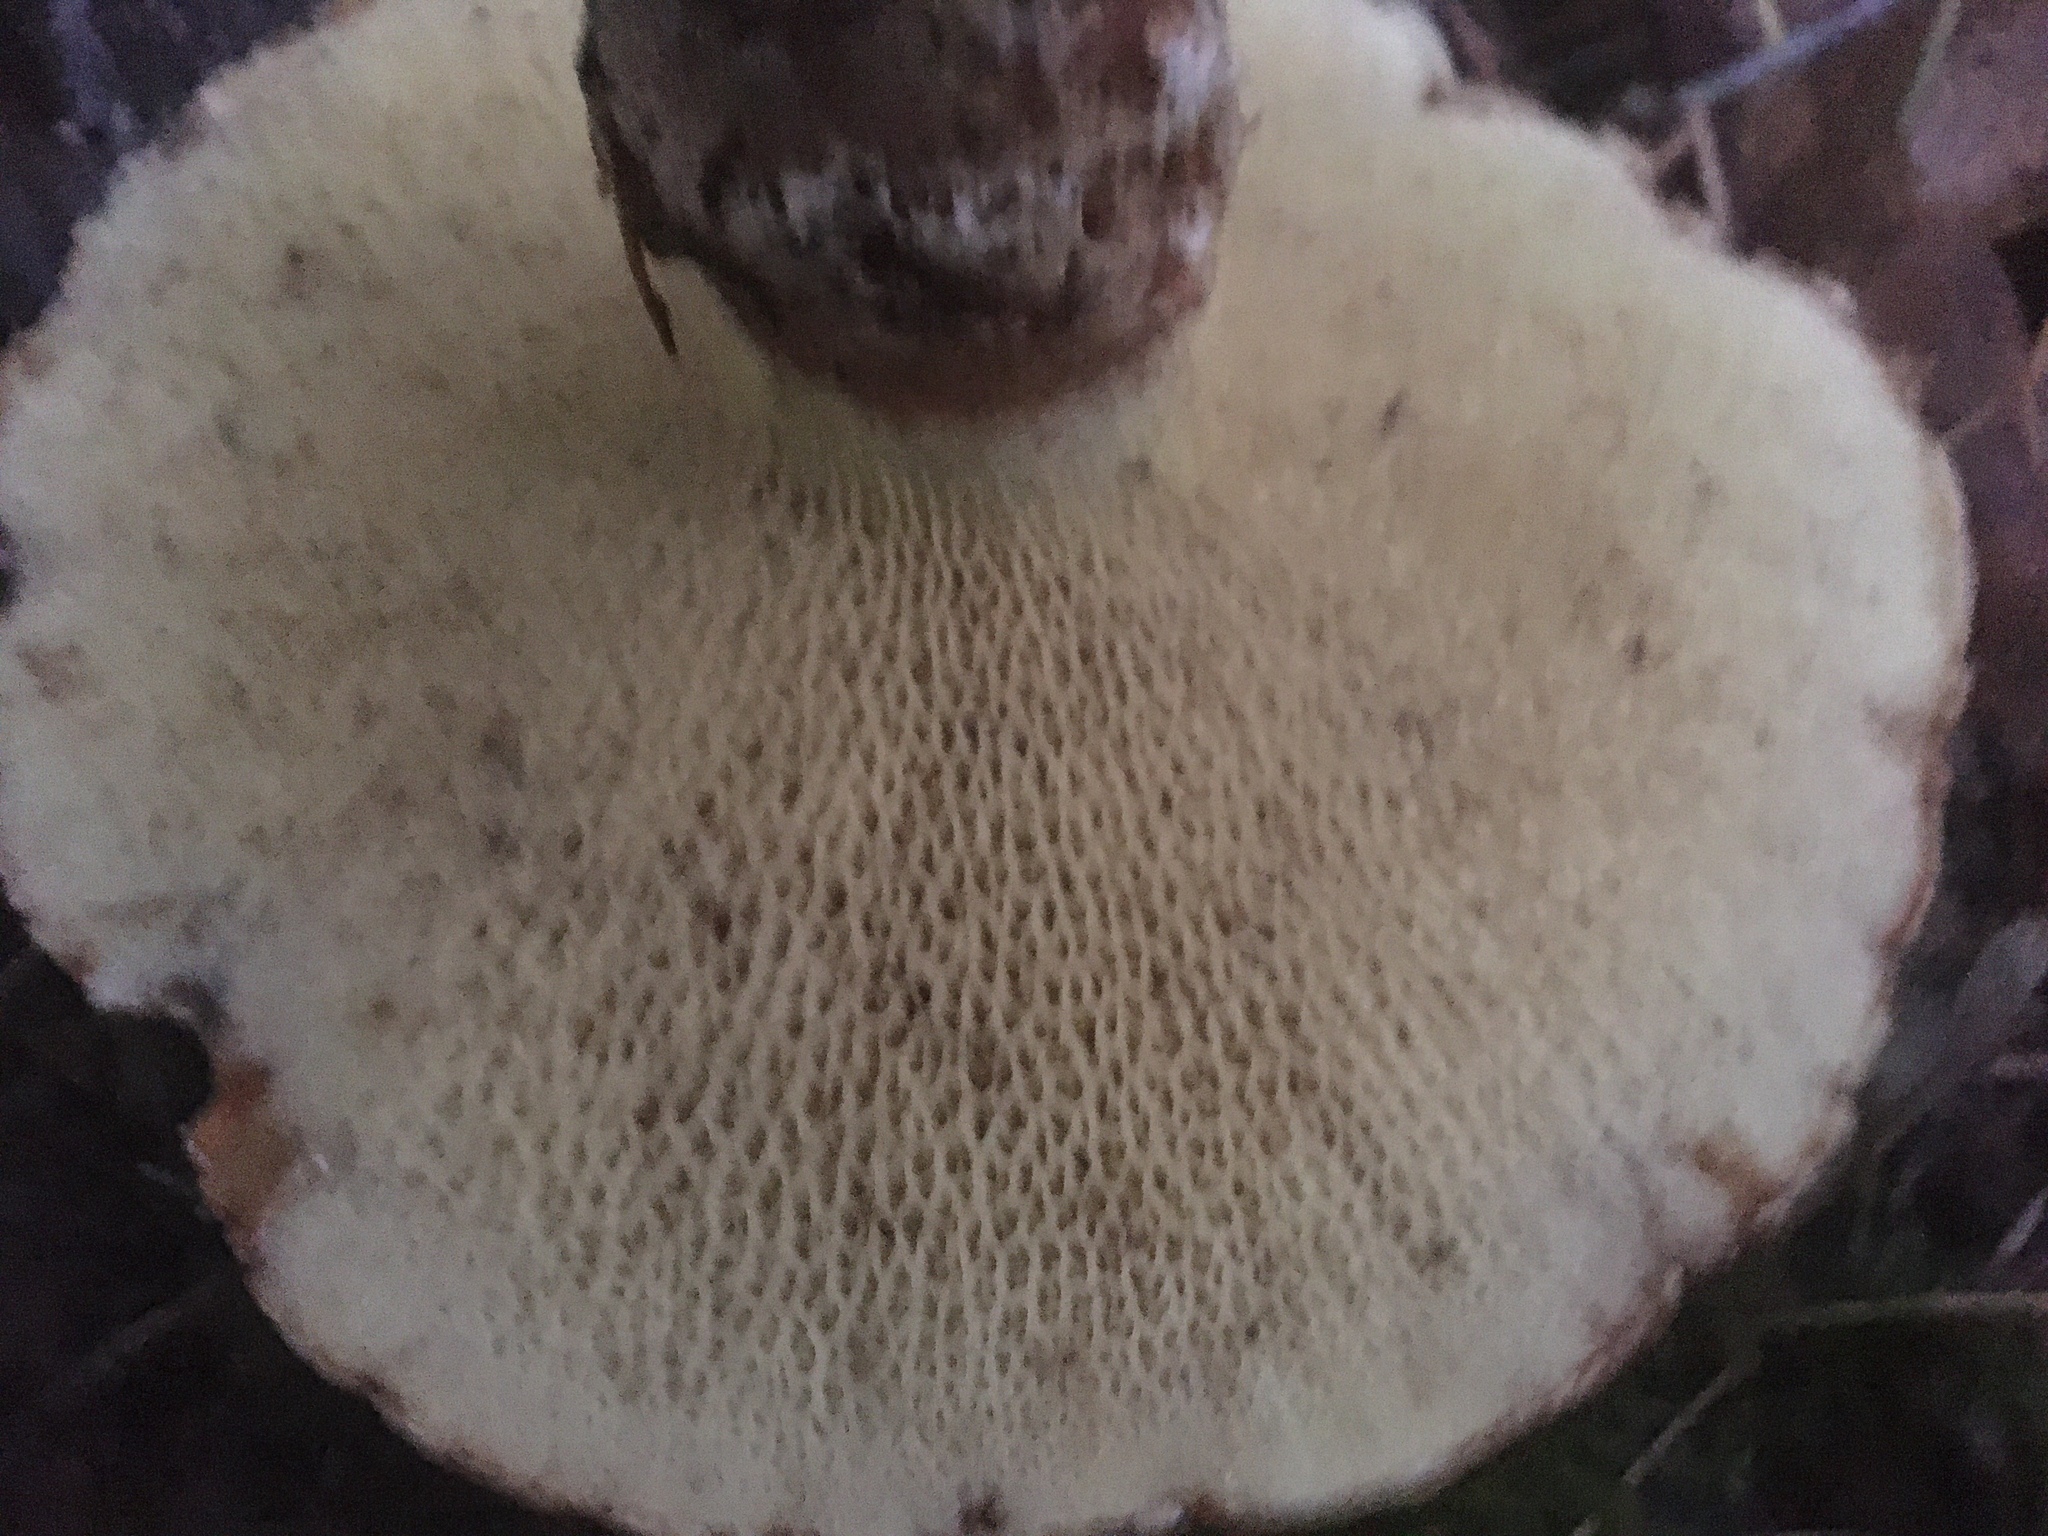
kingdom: Fungi
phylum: Basidiomycota
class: Agaricomycetes
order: Boletales
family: Suillaceae
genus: Suillus
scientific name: Suillus caerulescens
